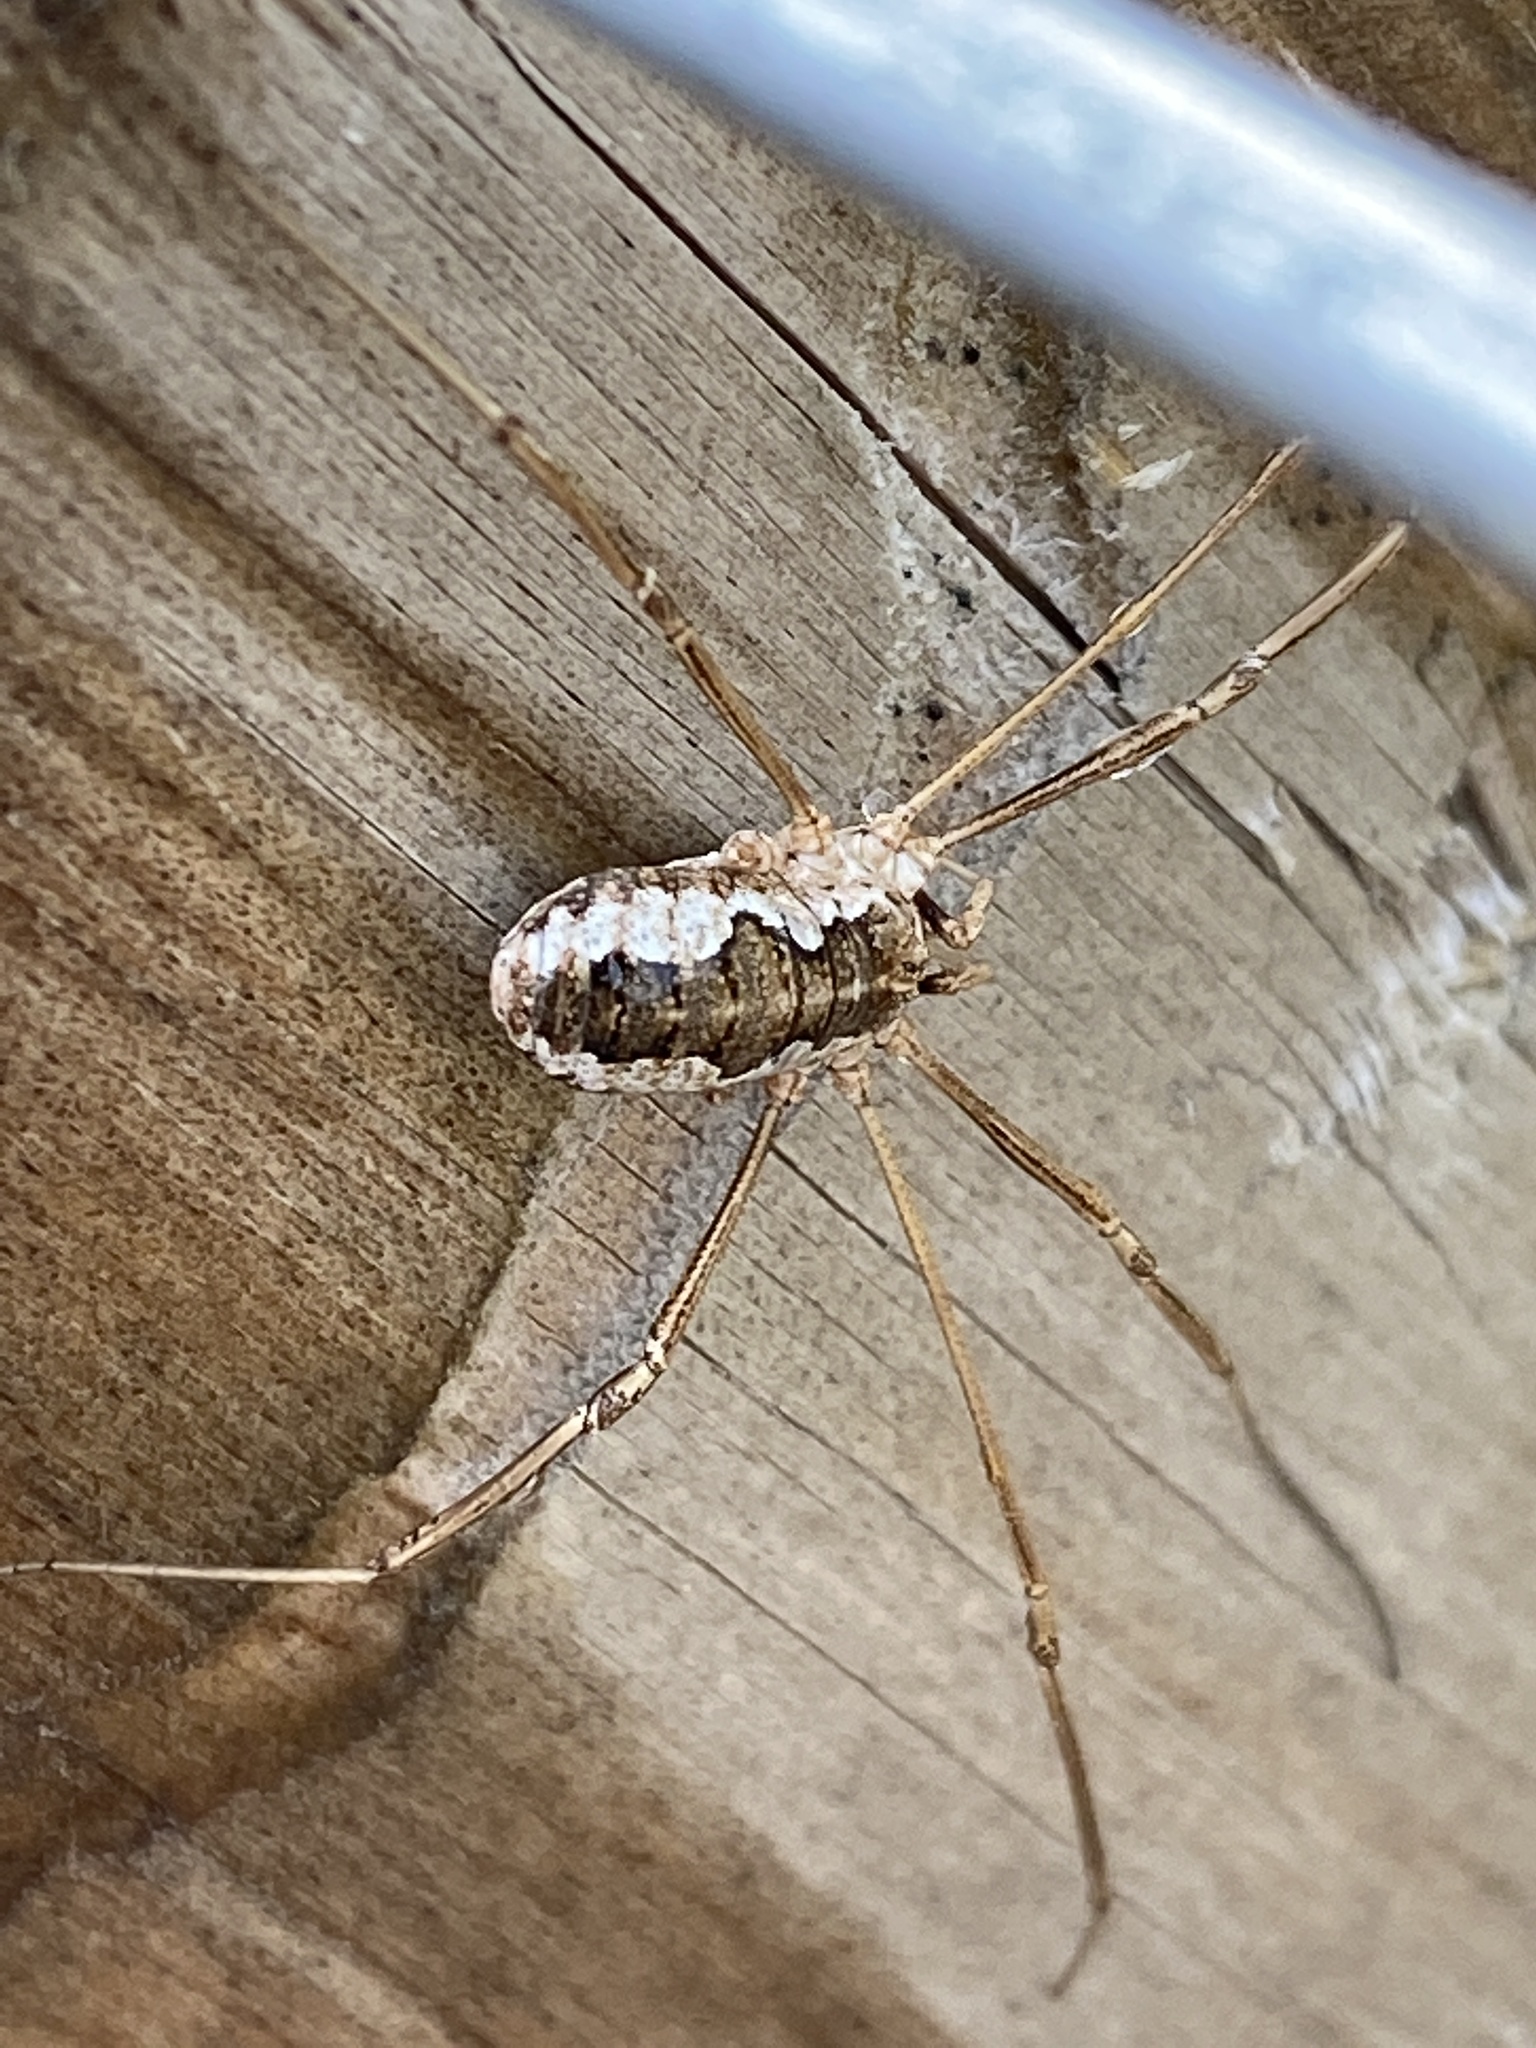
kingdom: Animalia
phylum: Arthropoda
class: Arachnida
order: Opiliones
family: Phalangiidae
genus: Phalangium
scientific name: Phalangium opilio
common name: Daddy longleg
